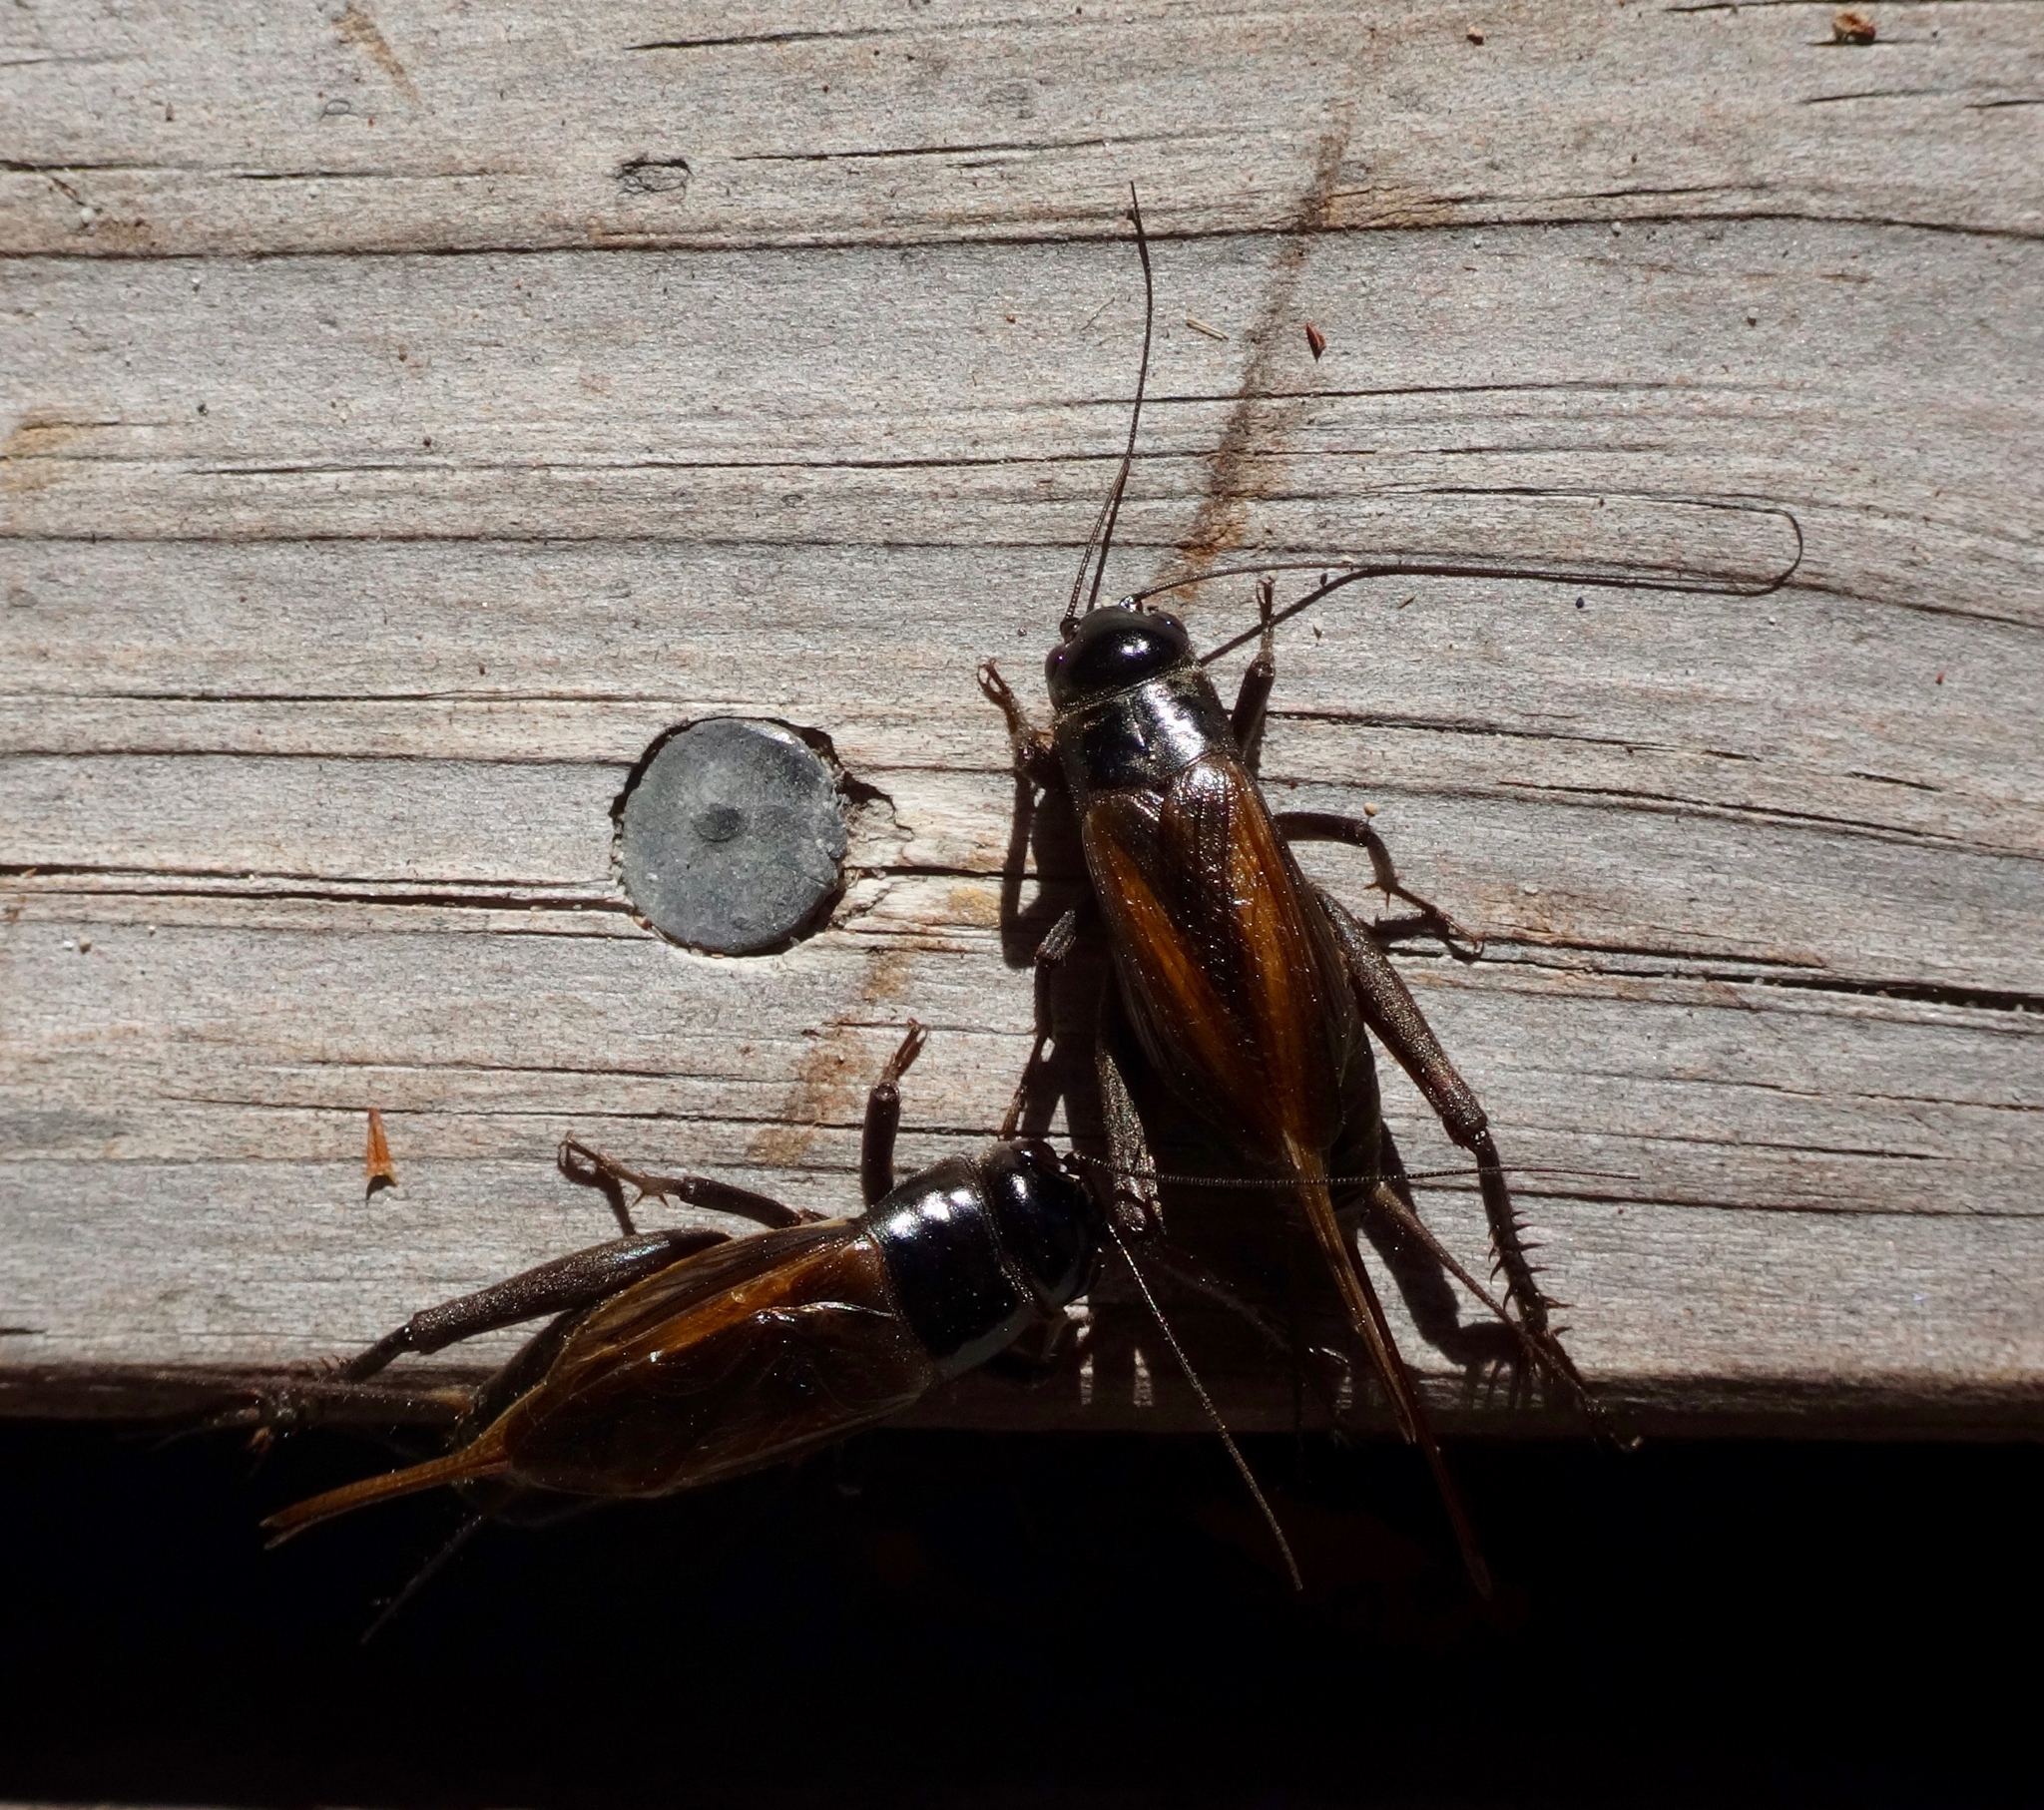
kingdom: Animalia
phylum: Arthropoda
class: Insecta
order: Orthoptera
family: Gryllidae
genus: Teleogryllus
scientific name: Teleogryllus commodus
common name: Black field cricket
